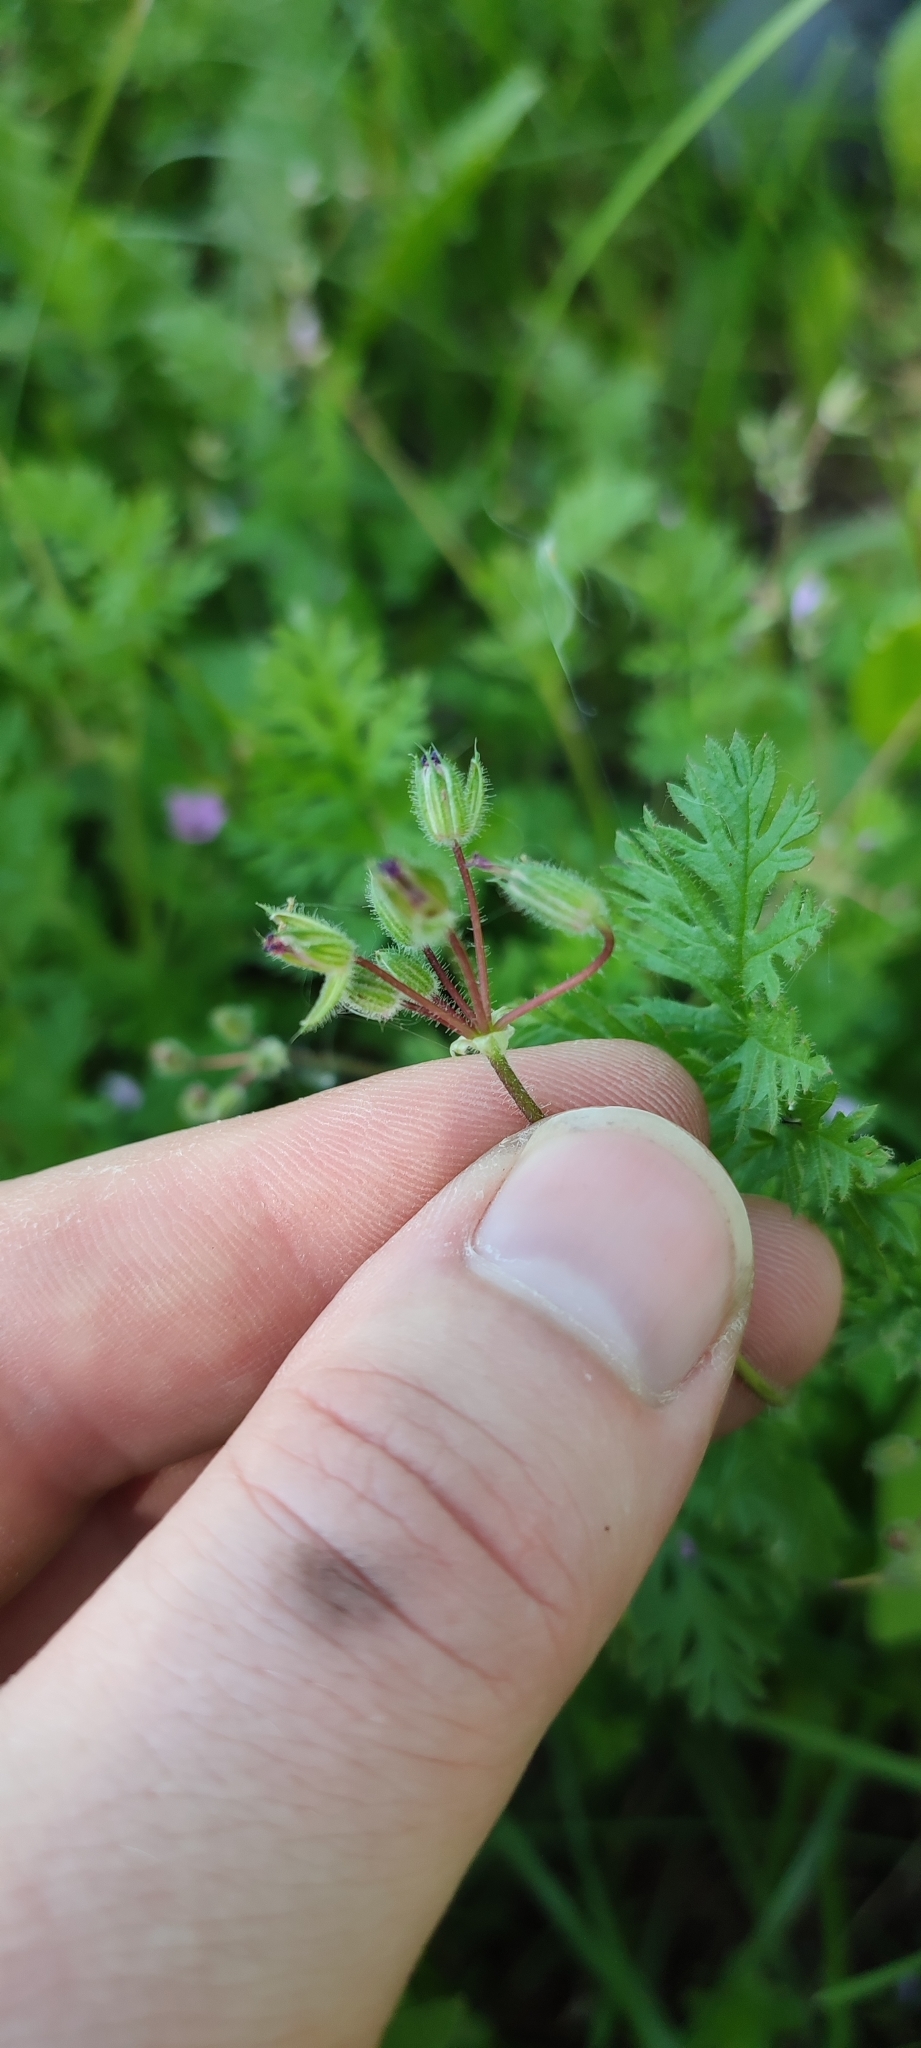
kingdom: Plantae
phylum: Tracheophyta
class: Magnoliopsida
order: Geraniales
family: Geraniaceae
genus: Erodium
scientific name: Erodium cicutarium
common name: Common stork's-bill
